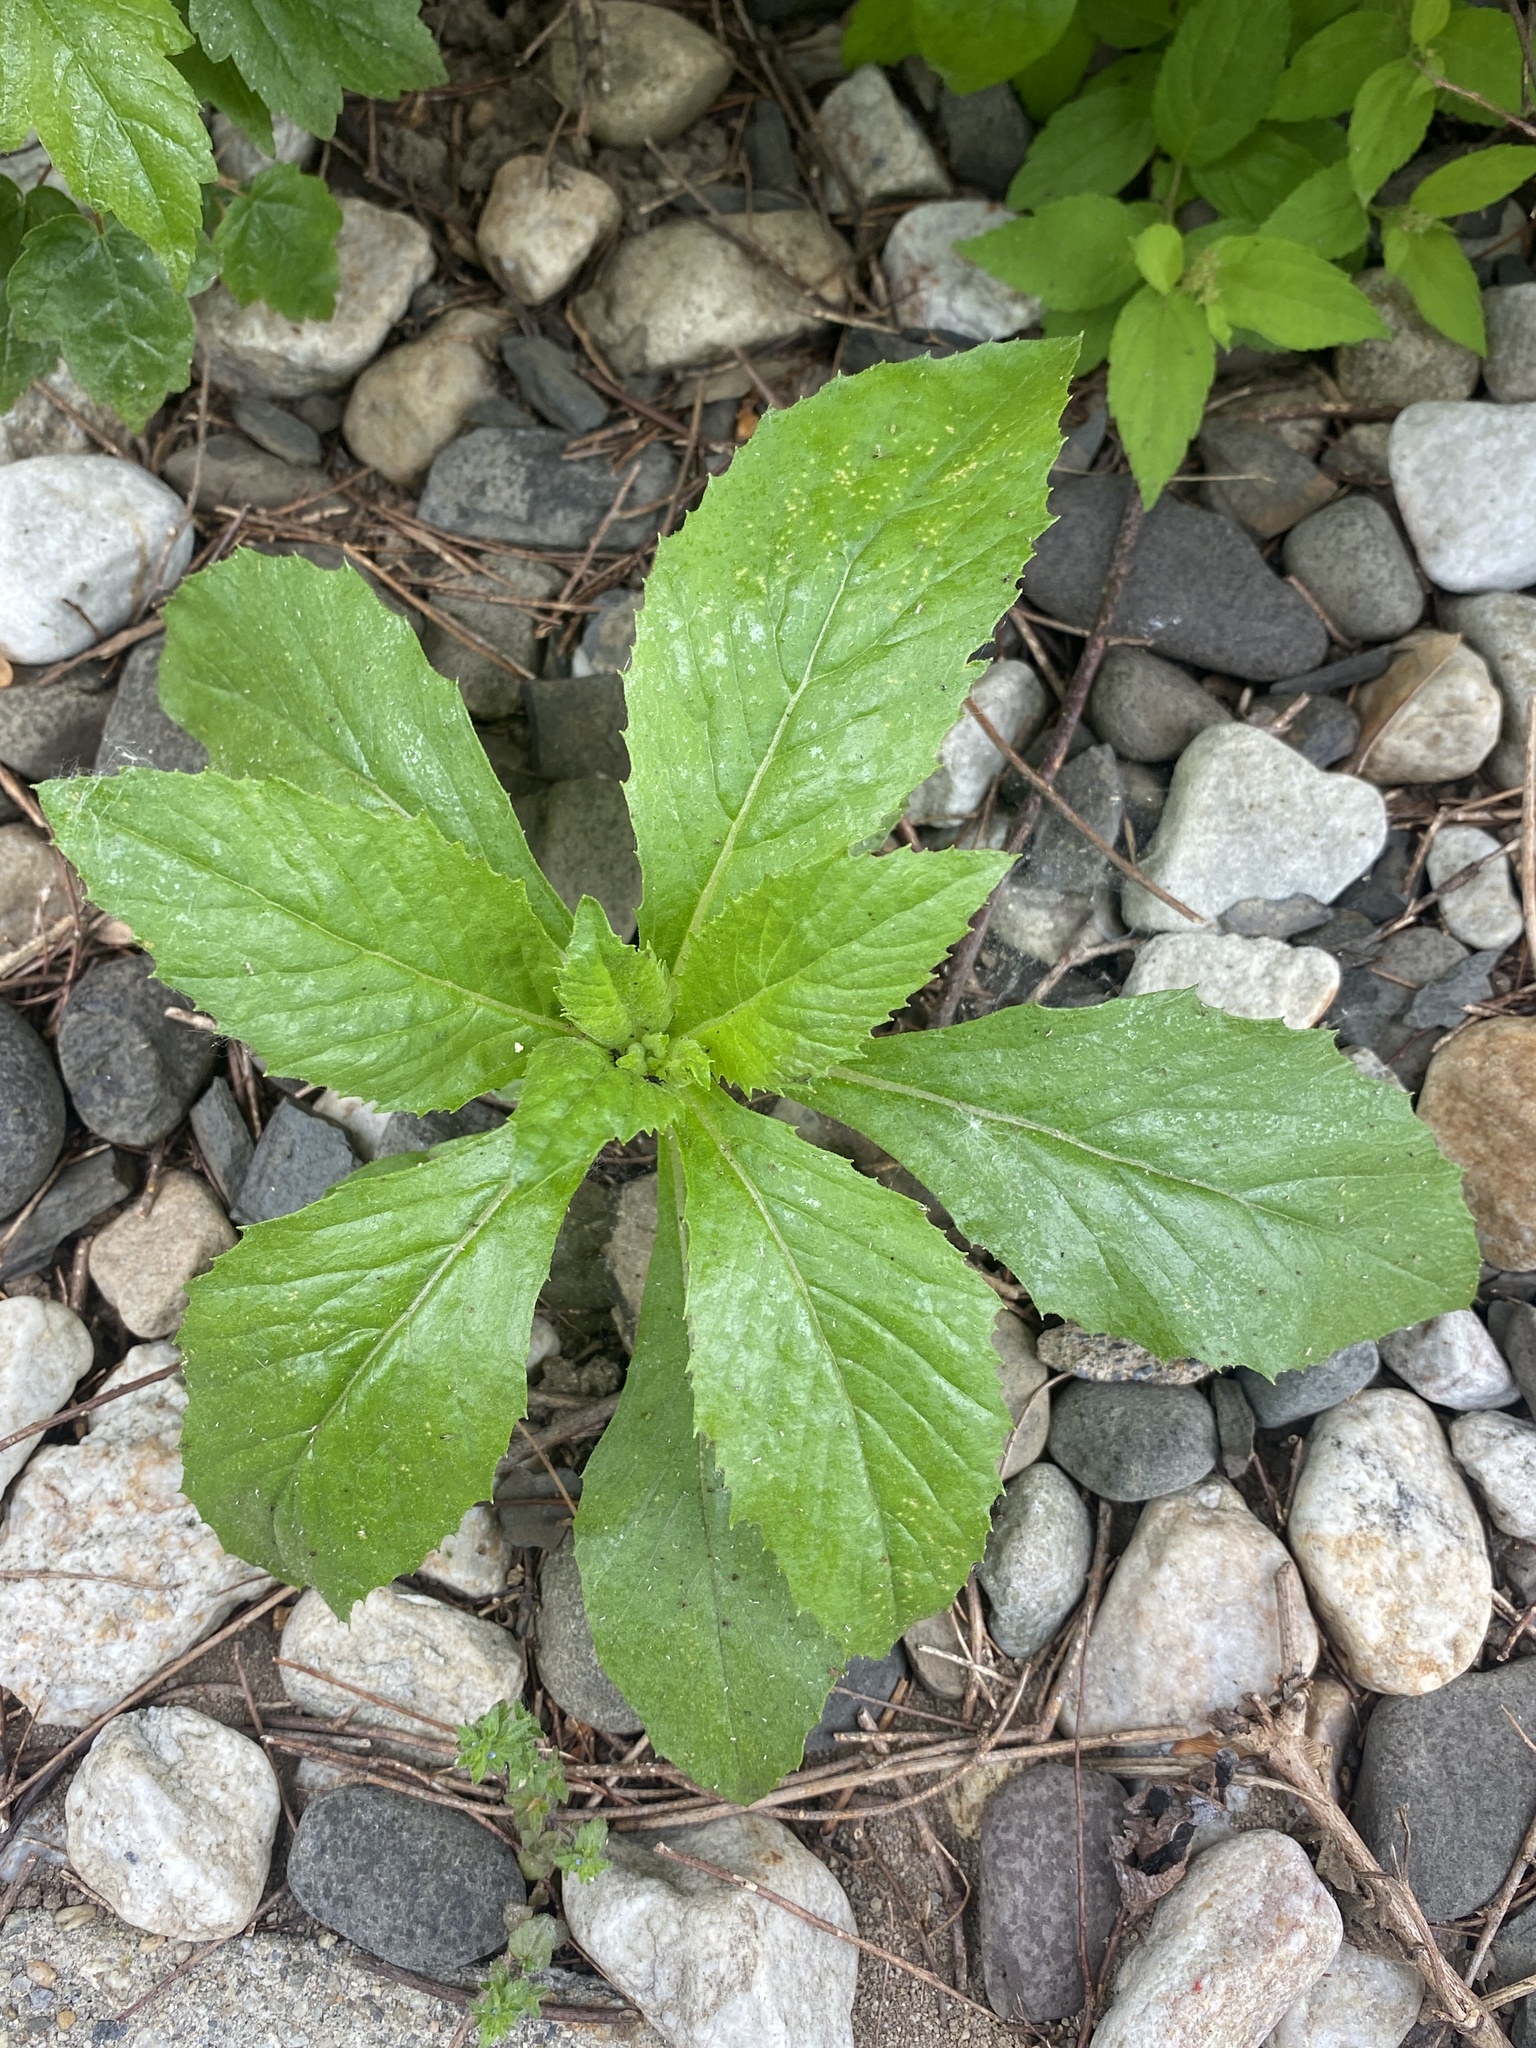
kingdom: Plantae
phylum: Tracheophyta
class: Magnoliopsida
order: Asterales
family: Asteraceae
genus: Erechtites
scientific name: Erechtites hieraciifolius
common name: American burnweed
